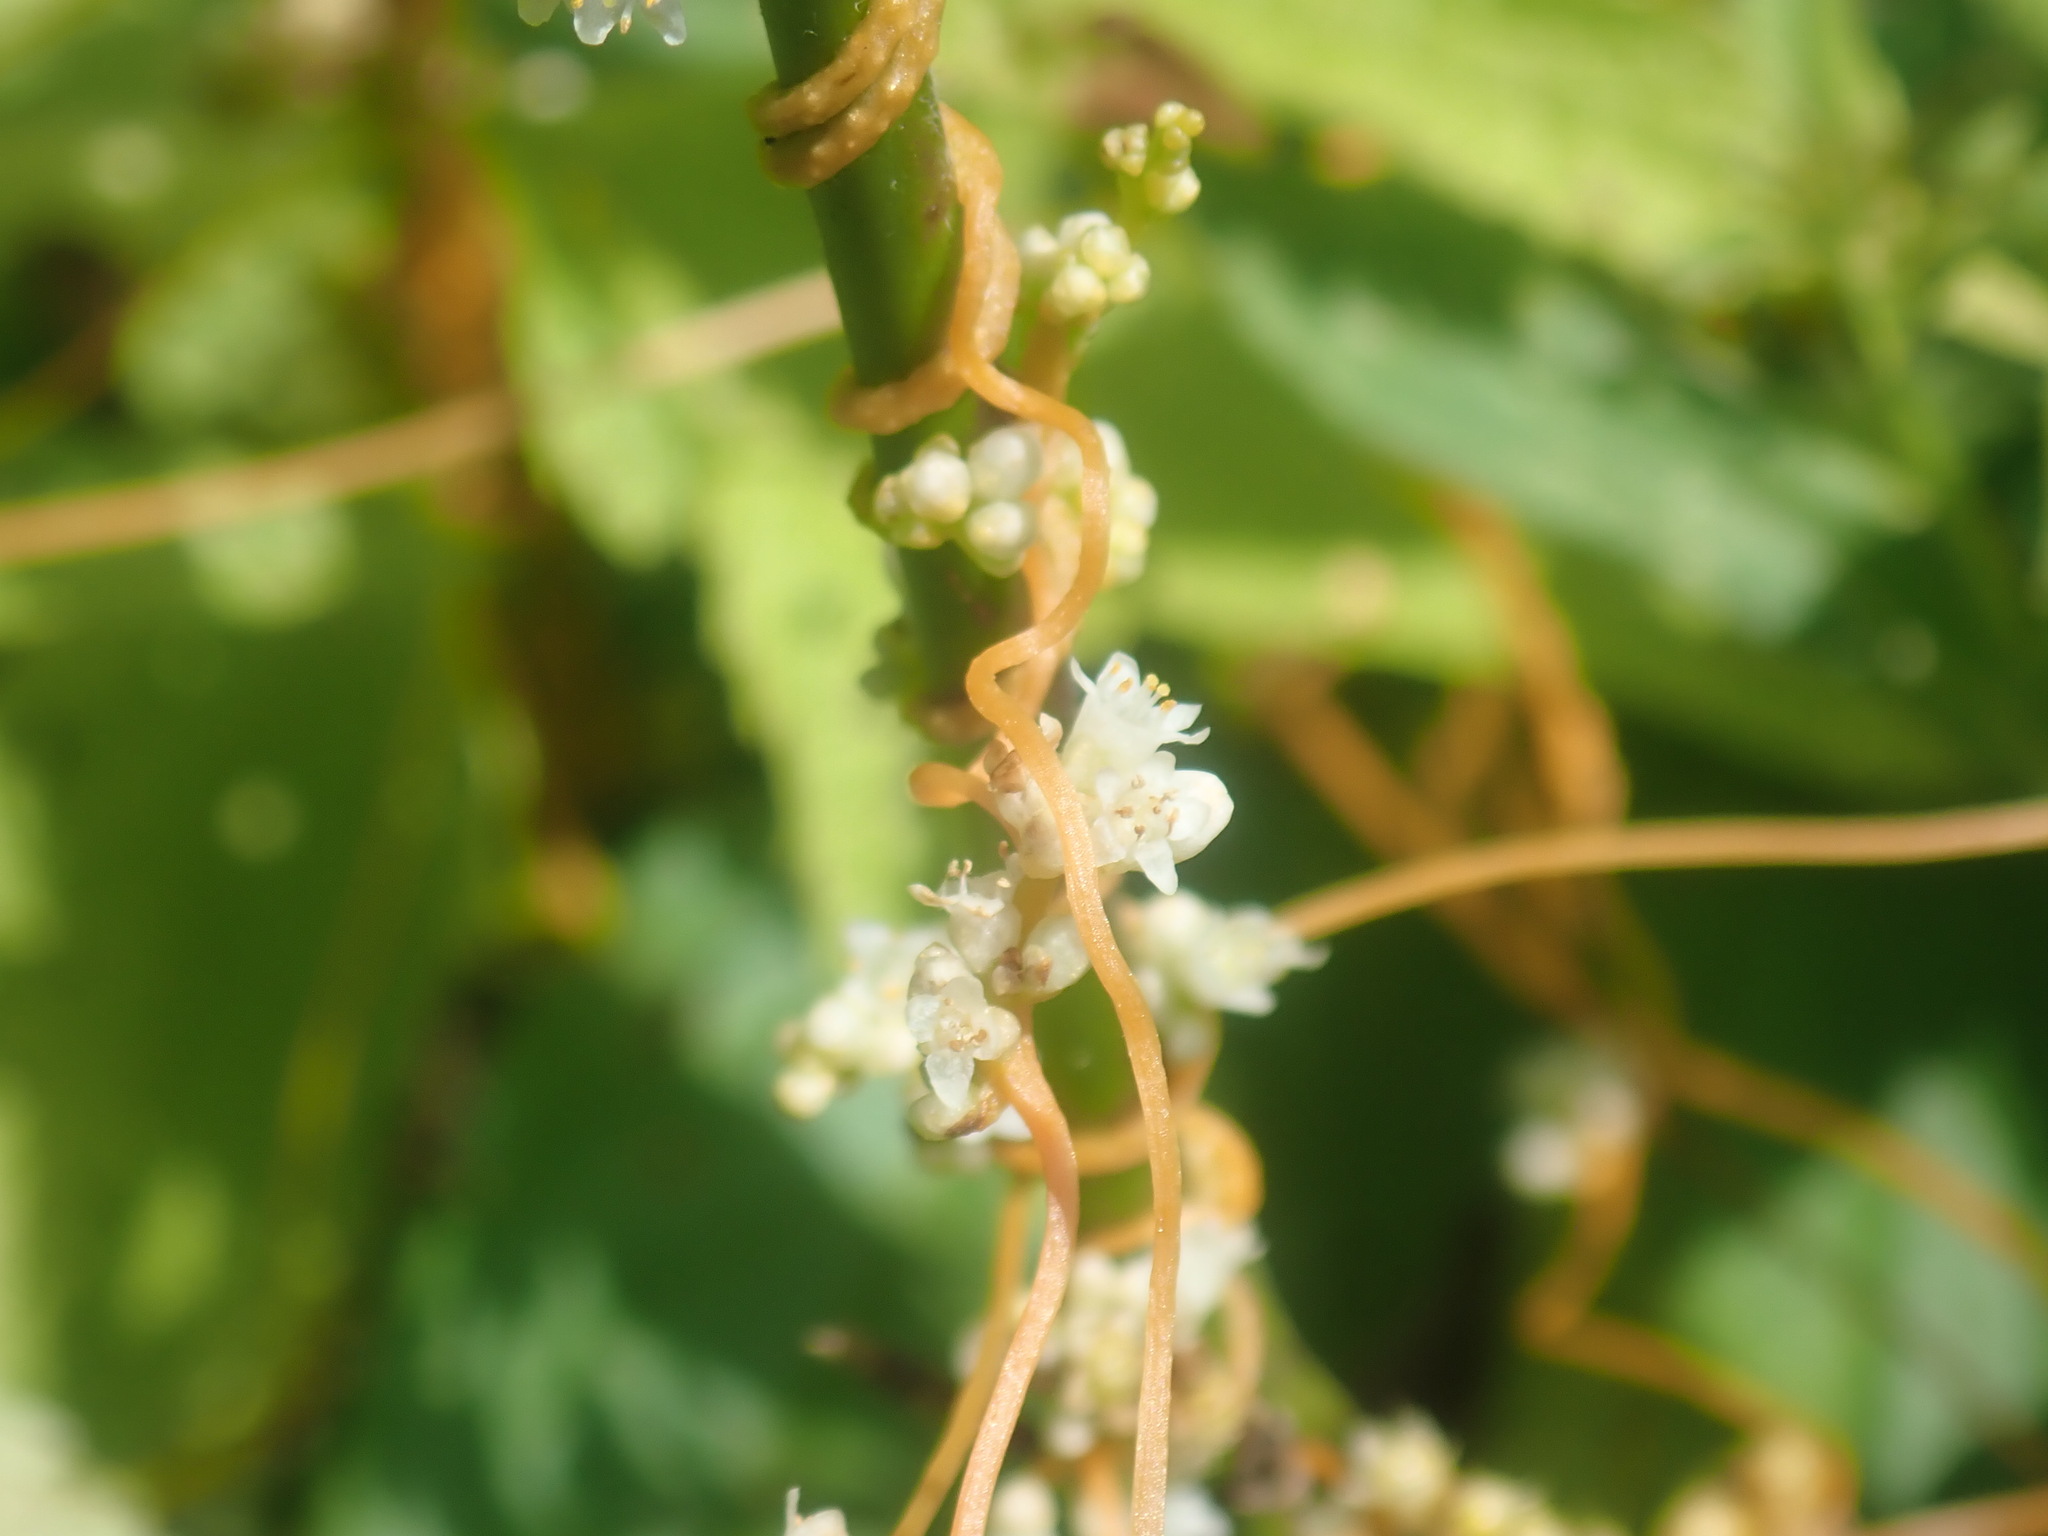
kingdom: Plantae
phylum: Tracheophyta
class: Magnoliopsida
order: Solanales
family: Convolvulaceae
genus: Cuscuta
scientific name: Cuscuta
